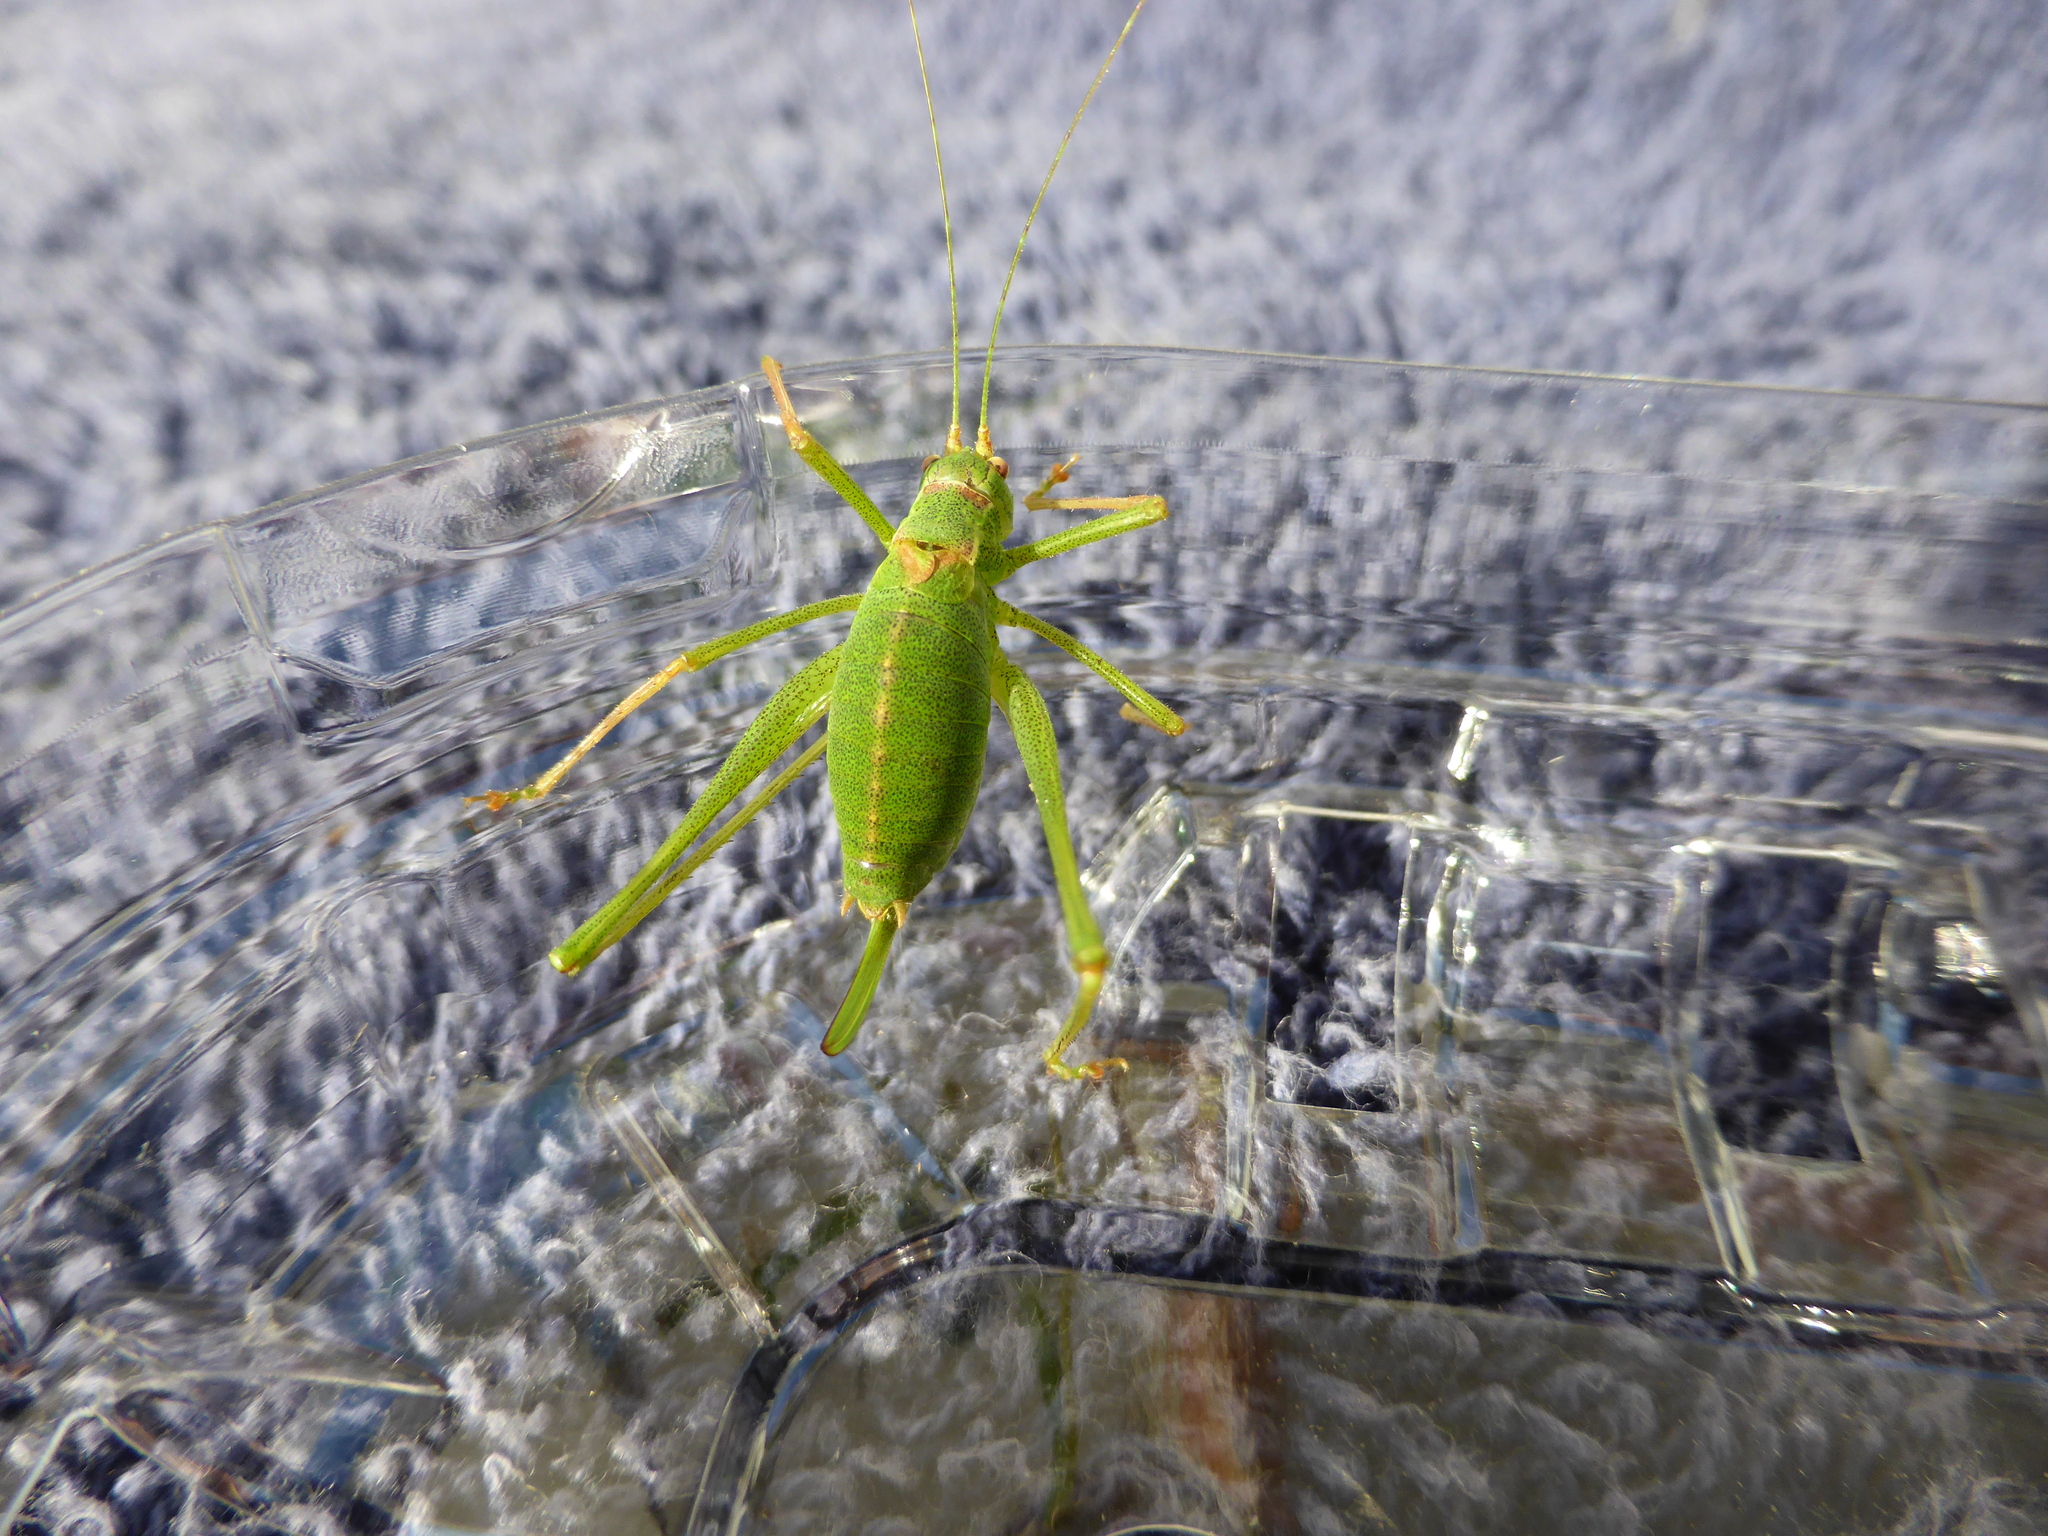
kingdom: Animalia
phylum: Arthropoda
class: Insecta
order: Orthoptera
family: Tettigoniidae
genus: Leptophyes
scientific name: Leptophyes punctatissima
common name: Speckled bush-cricket
